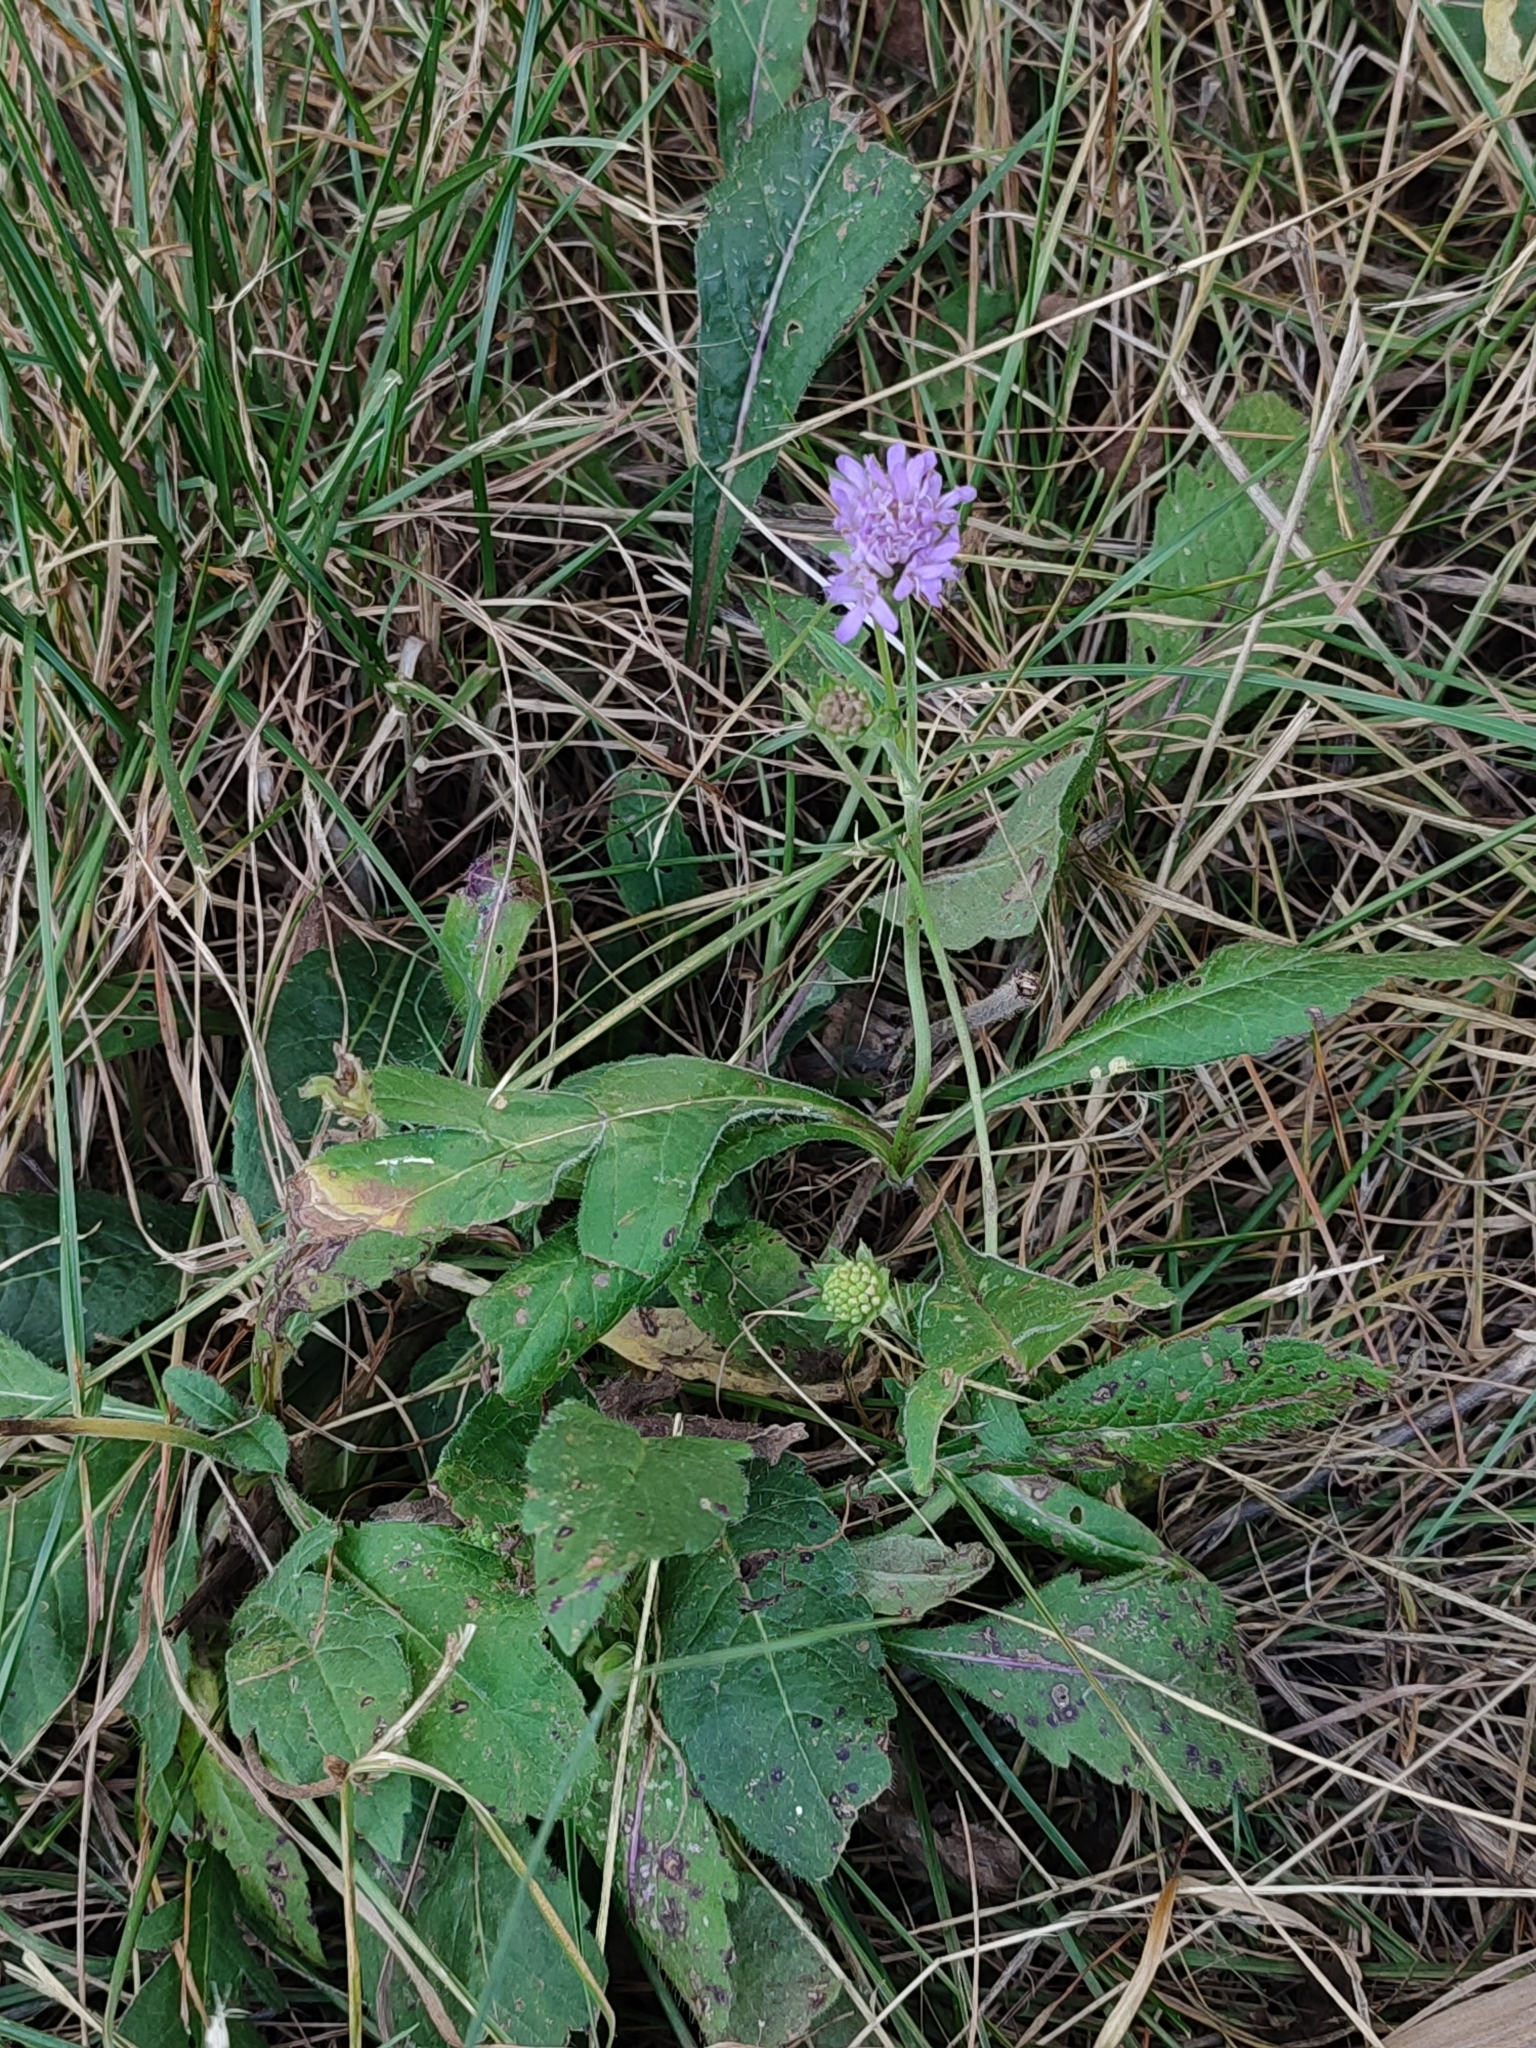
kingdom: Plantae
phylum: Tracheophyta
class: Magnoliopsida
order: Dipsacales
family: Caprifoliaceae
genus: Knautia
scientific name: Knautia arvensis
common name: Field scabiosa
